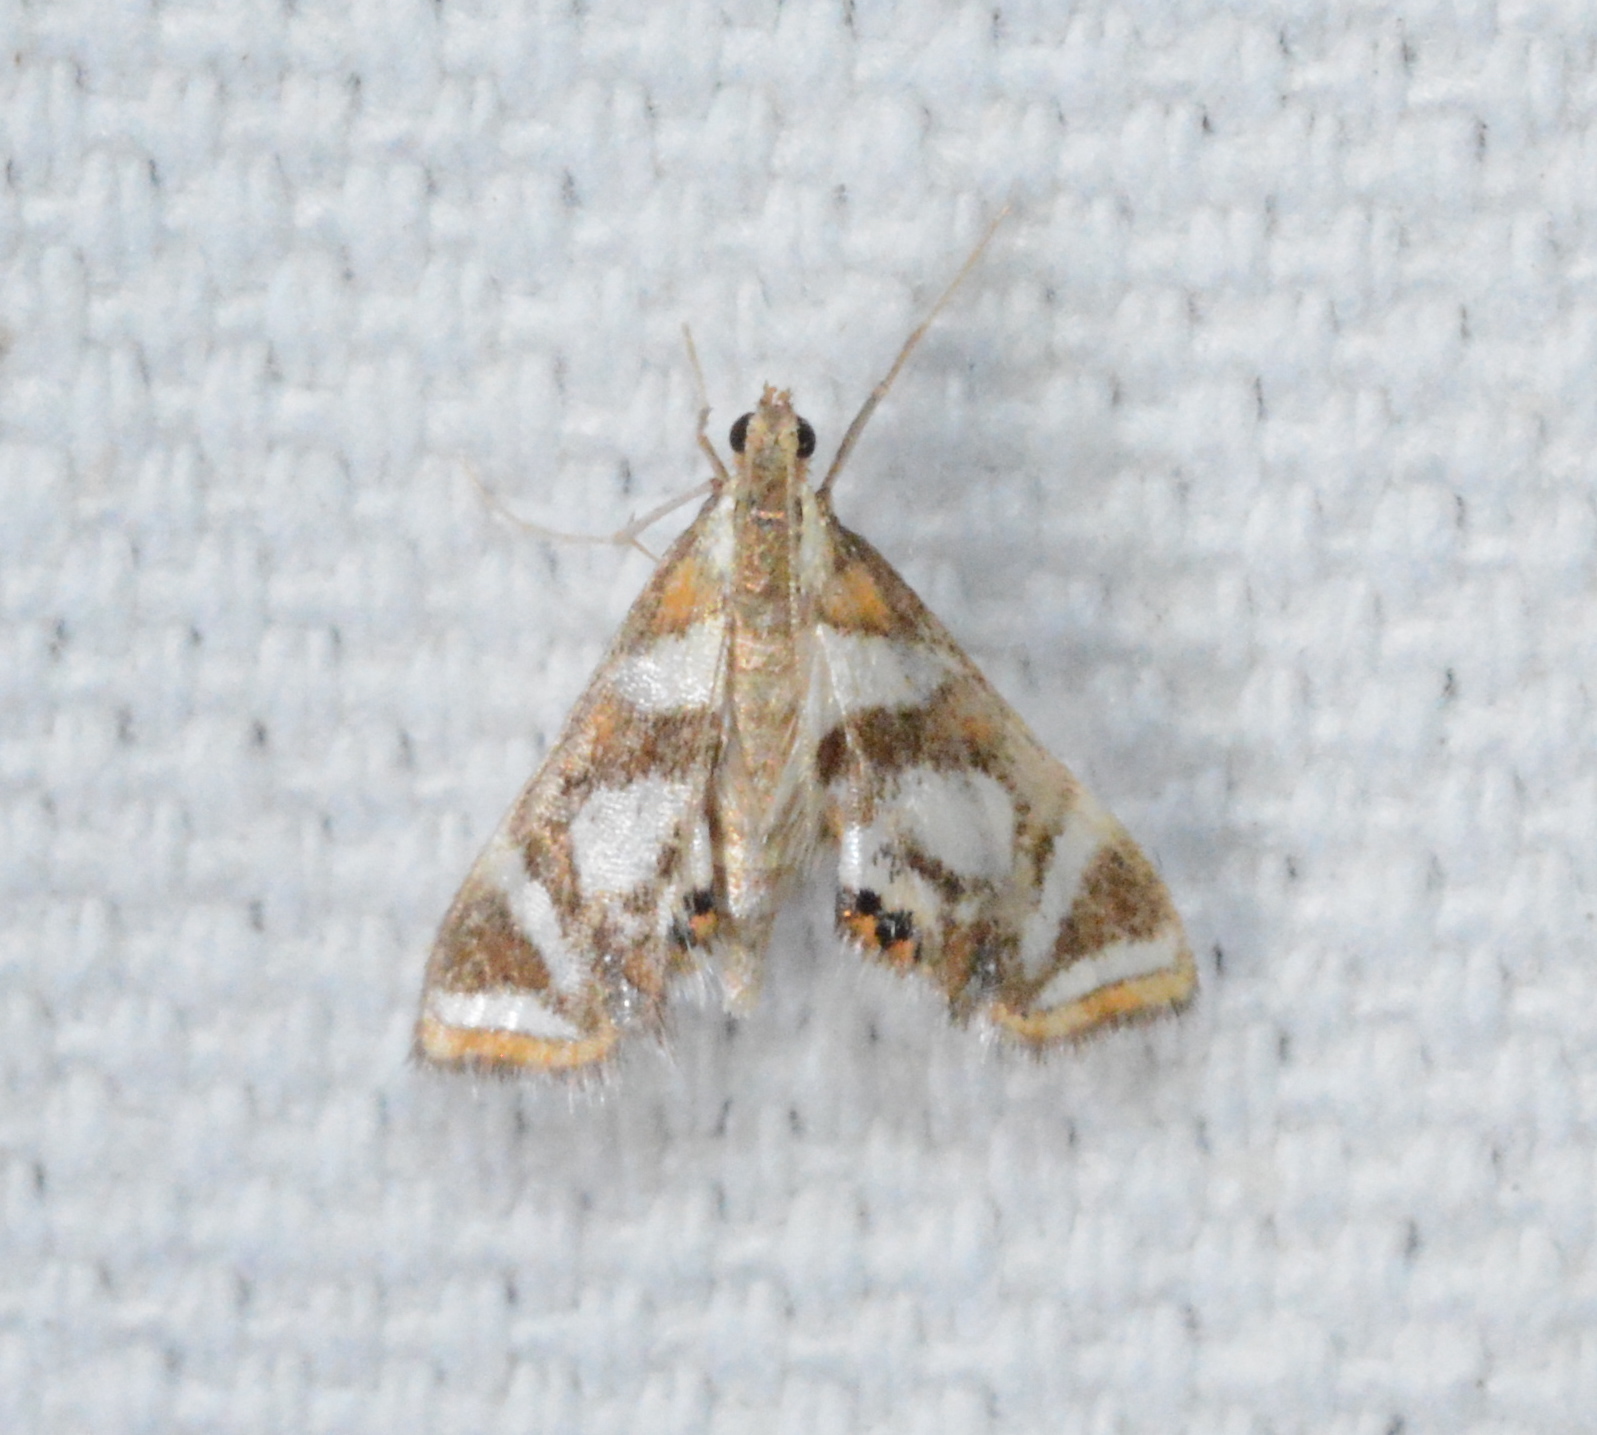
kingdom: Animalia
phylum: Arthropoda
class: Insecta
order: Lepidoptera
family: Crambidae
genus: Chrysendeton
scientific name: Chrysendeton medicinalis
